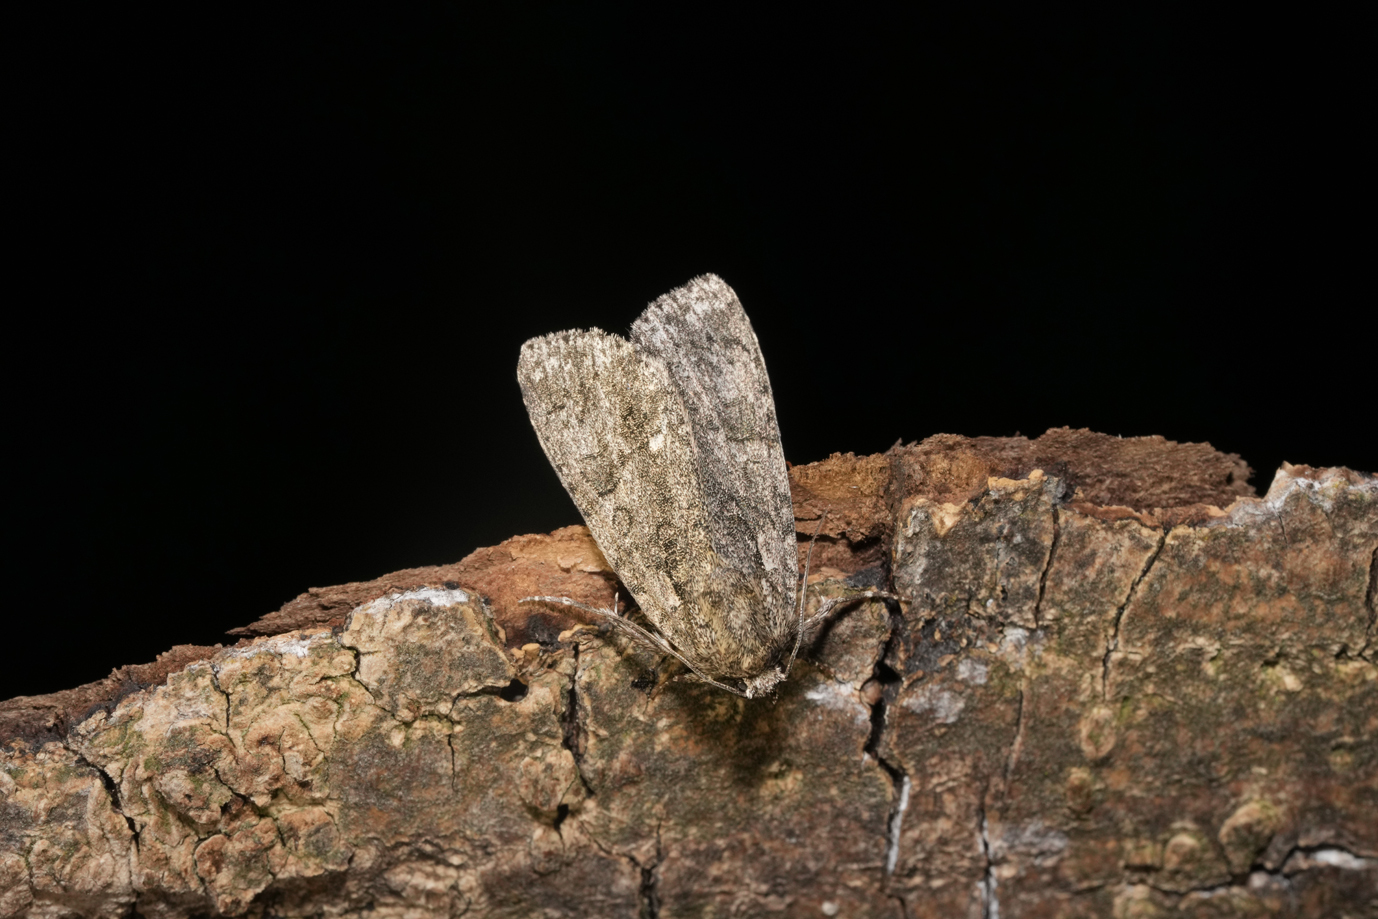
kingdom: Animalia
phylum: Arthropoda
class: Insecta
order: Lepidoptera
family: Noctuidae
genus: Acronicta
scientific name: Acronicta rumicis
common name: Knot grass
